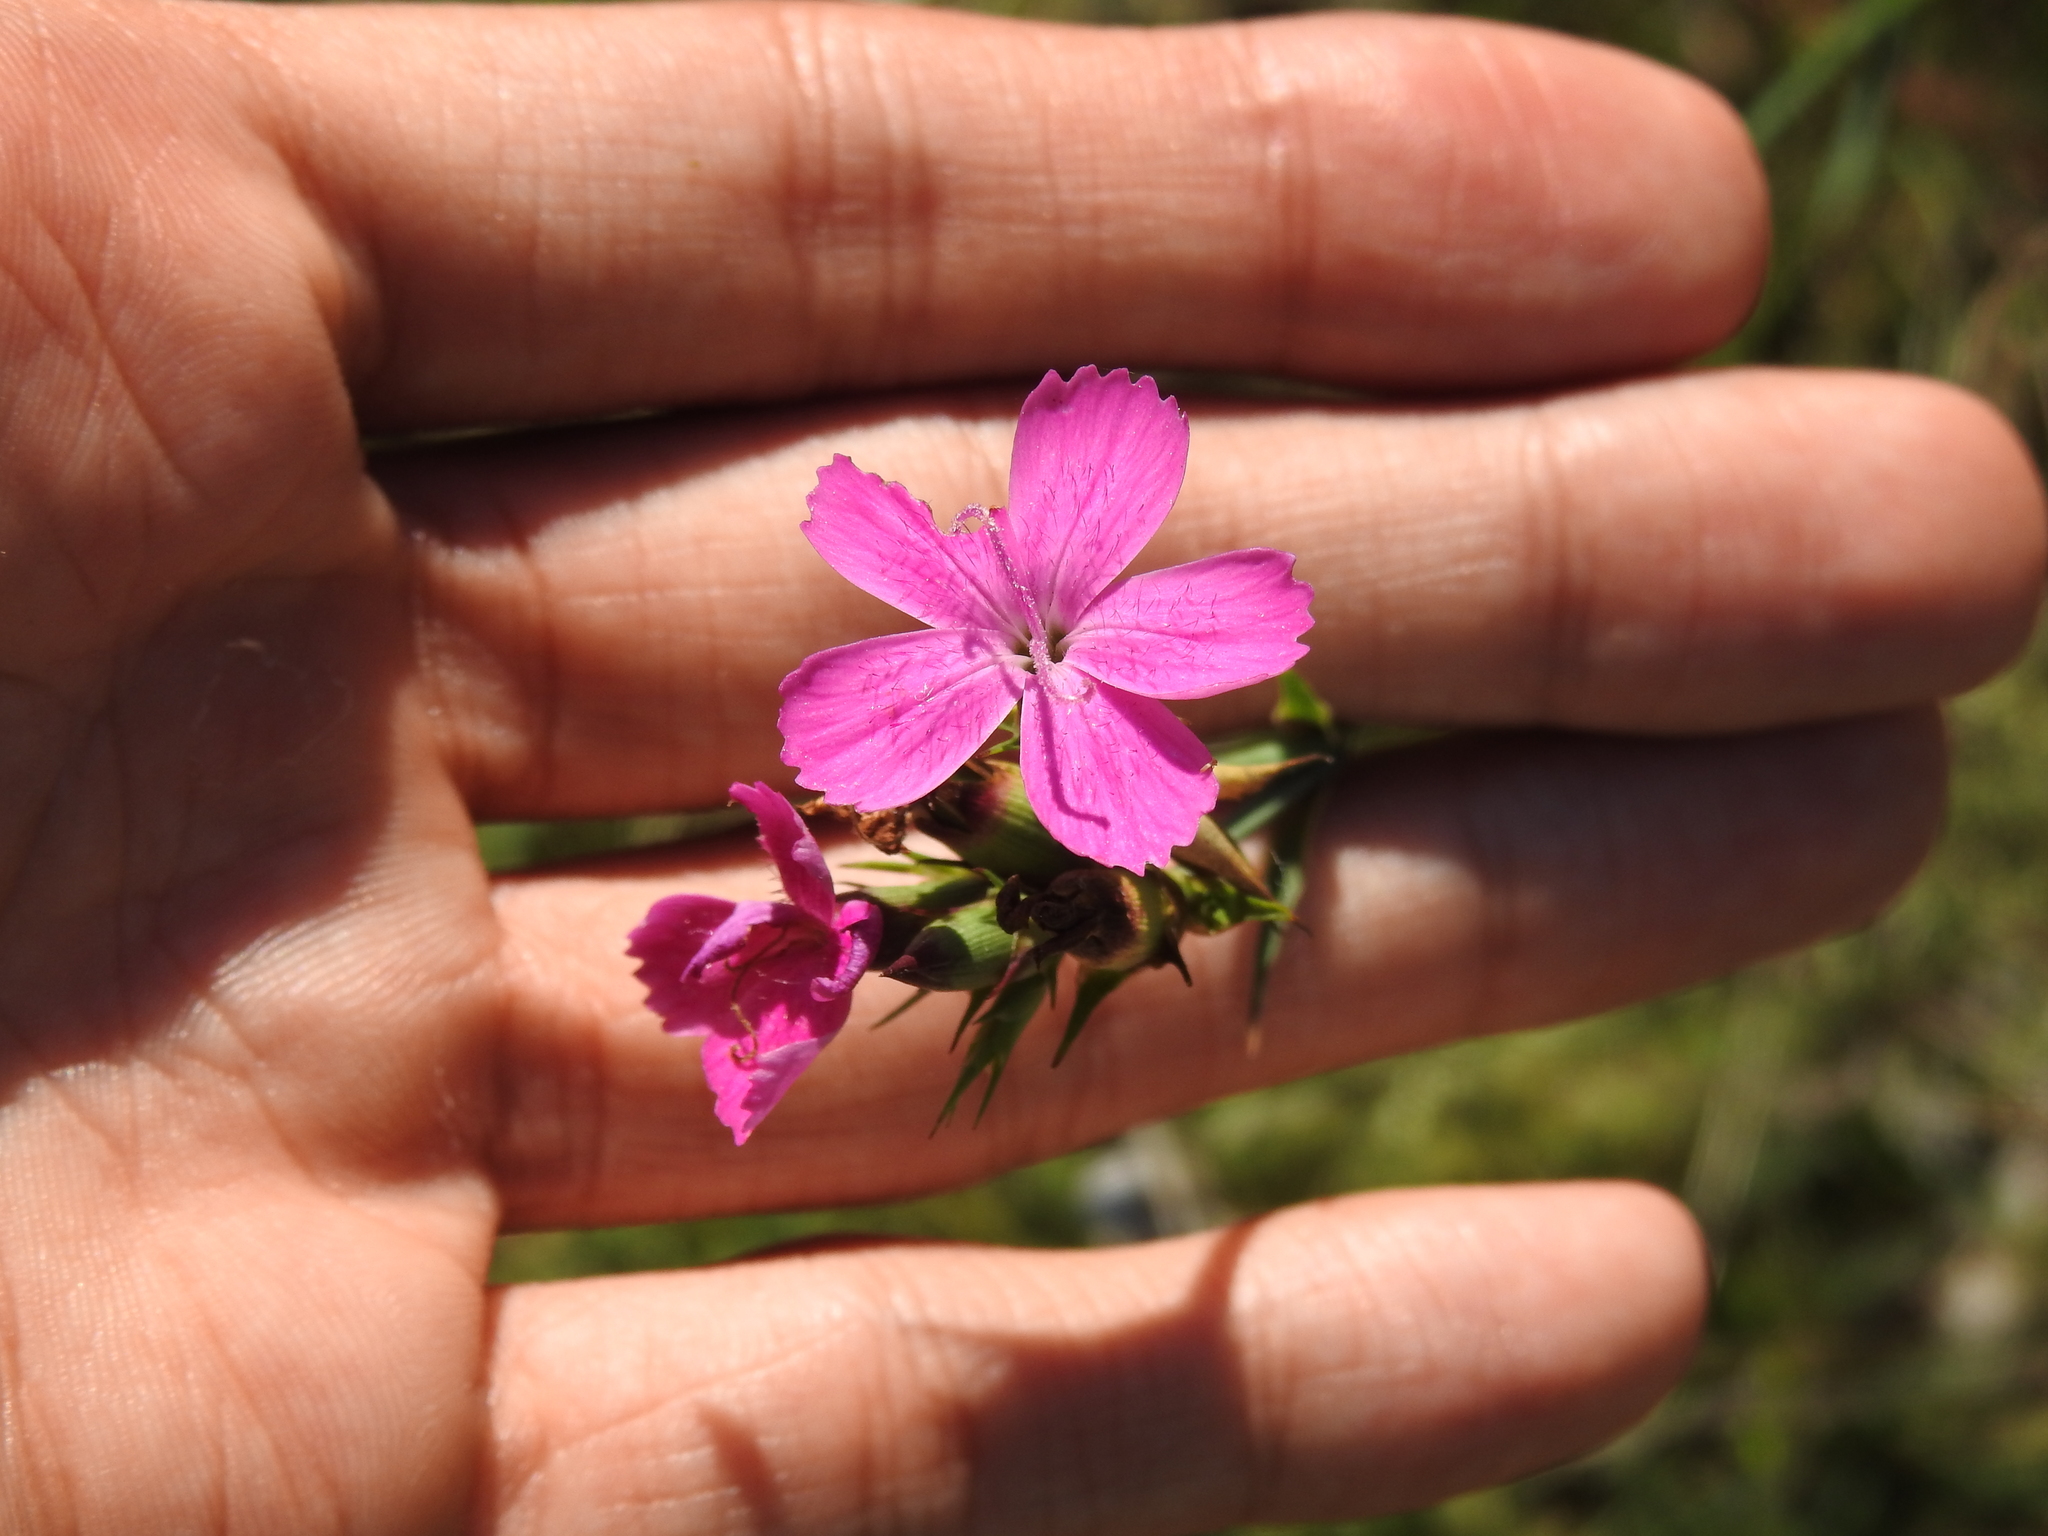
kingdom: Plantae
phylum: Tracheophyta
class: Magnoliopsida
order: Caryophyllales
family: Caryophyllaceae
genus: Dianthus
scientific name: Dianthus carthusianorum
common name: Carthusian pink
